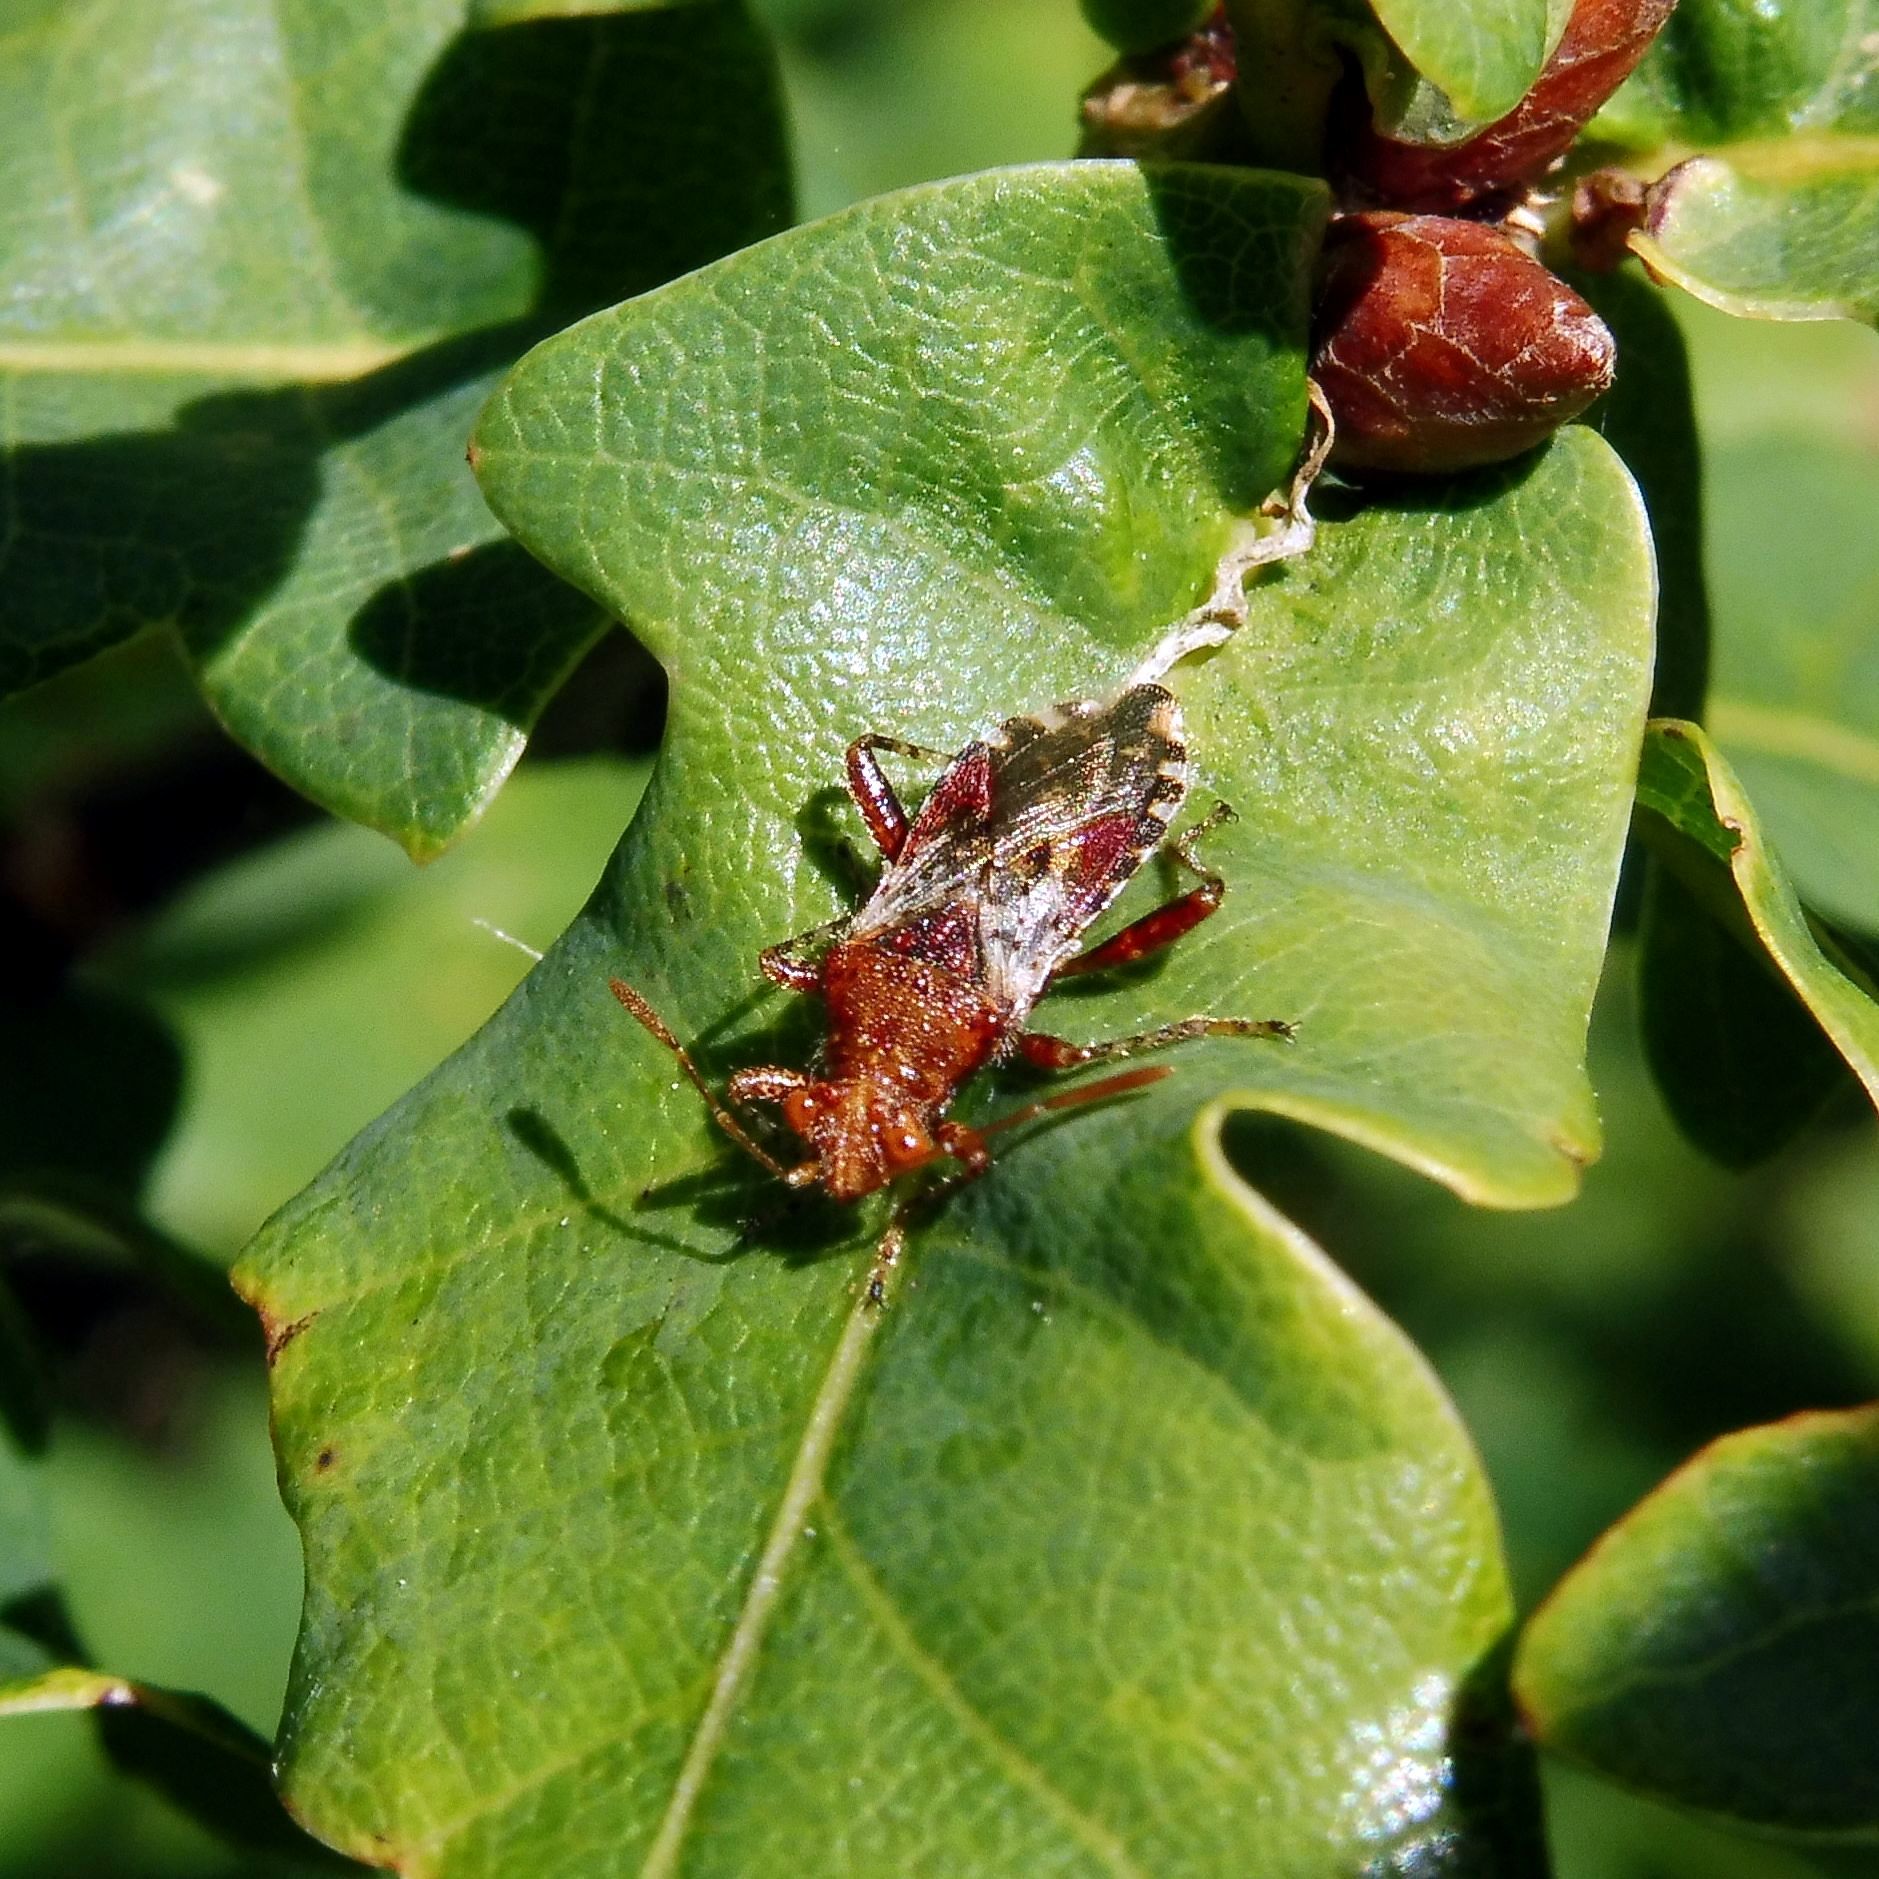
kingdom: Animalia
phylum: Arthropoda
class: Insecta
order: Hemiptera
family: Rhopalidae
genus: Rhopalus
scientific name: Rhopalus subrufus
